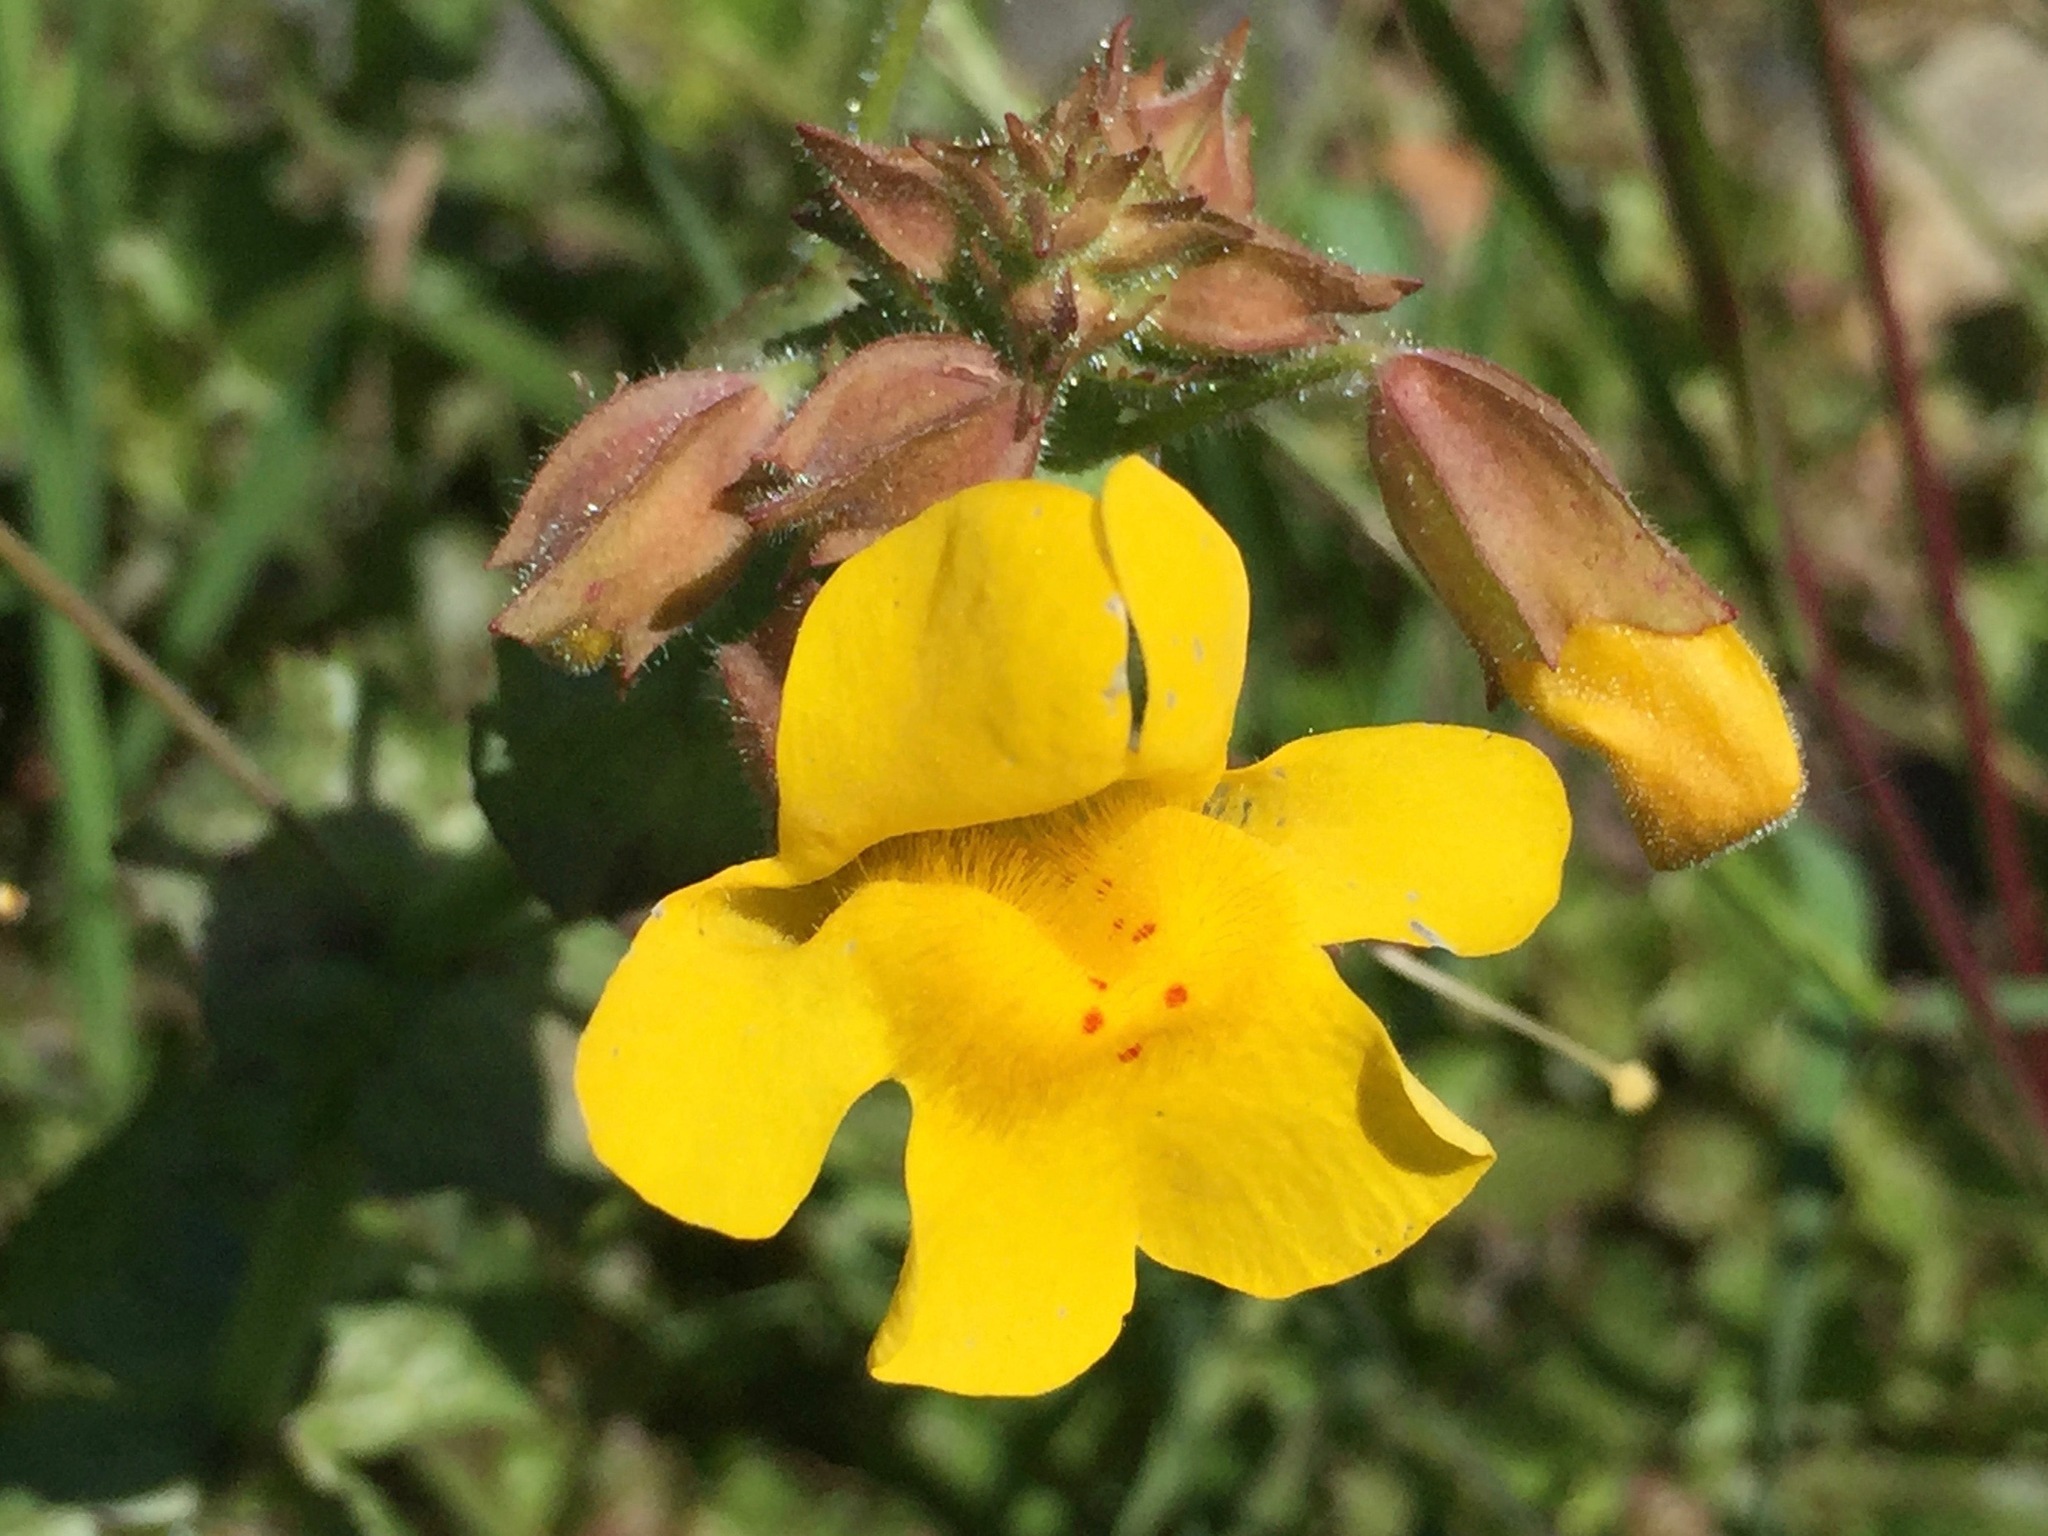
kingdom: Plantae
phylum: Tracheophyta
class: Magnoliopsida
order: Lamiales
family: Phrymaceae
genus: Erythranthe
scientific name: Erythranthe guttata
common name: Monkeyflower
